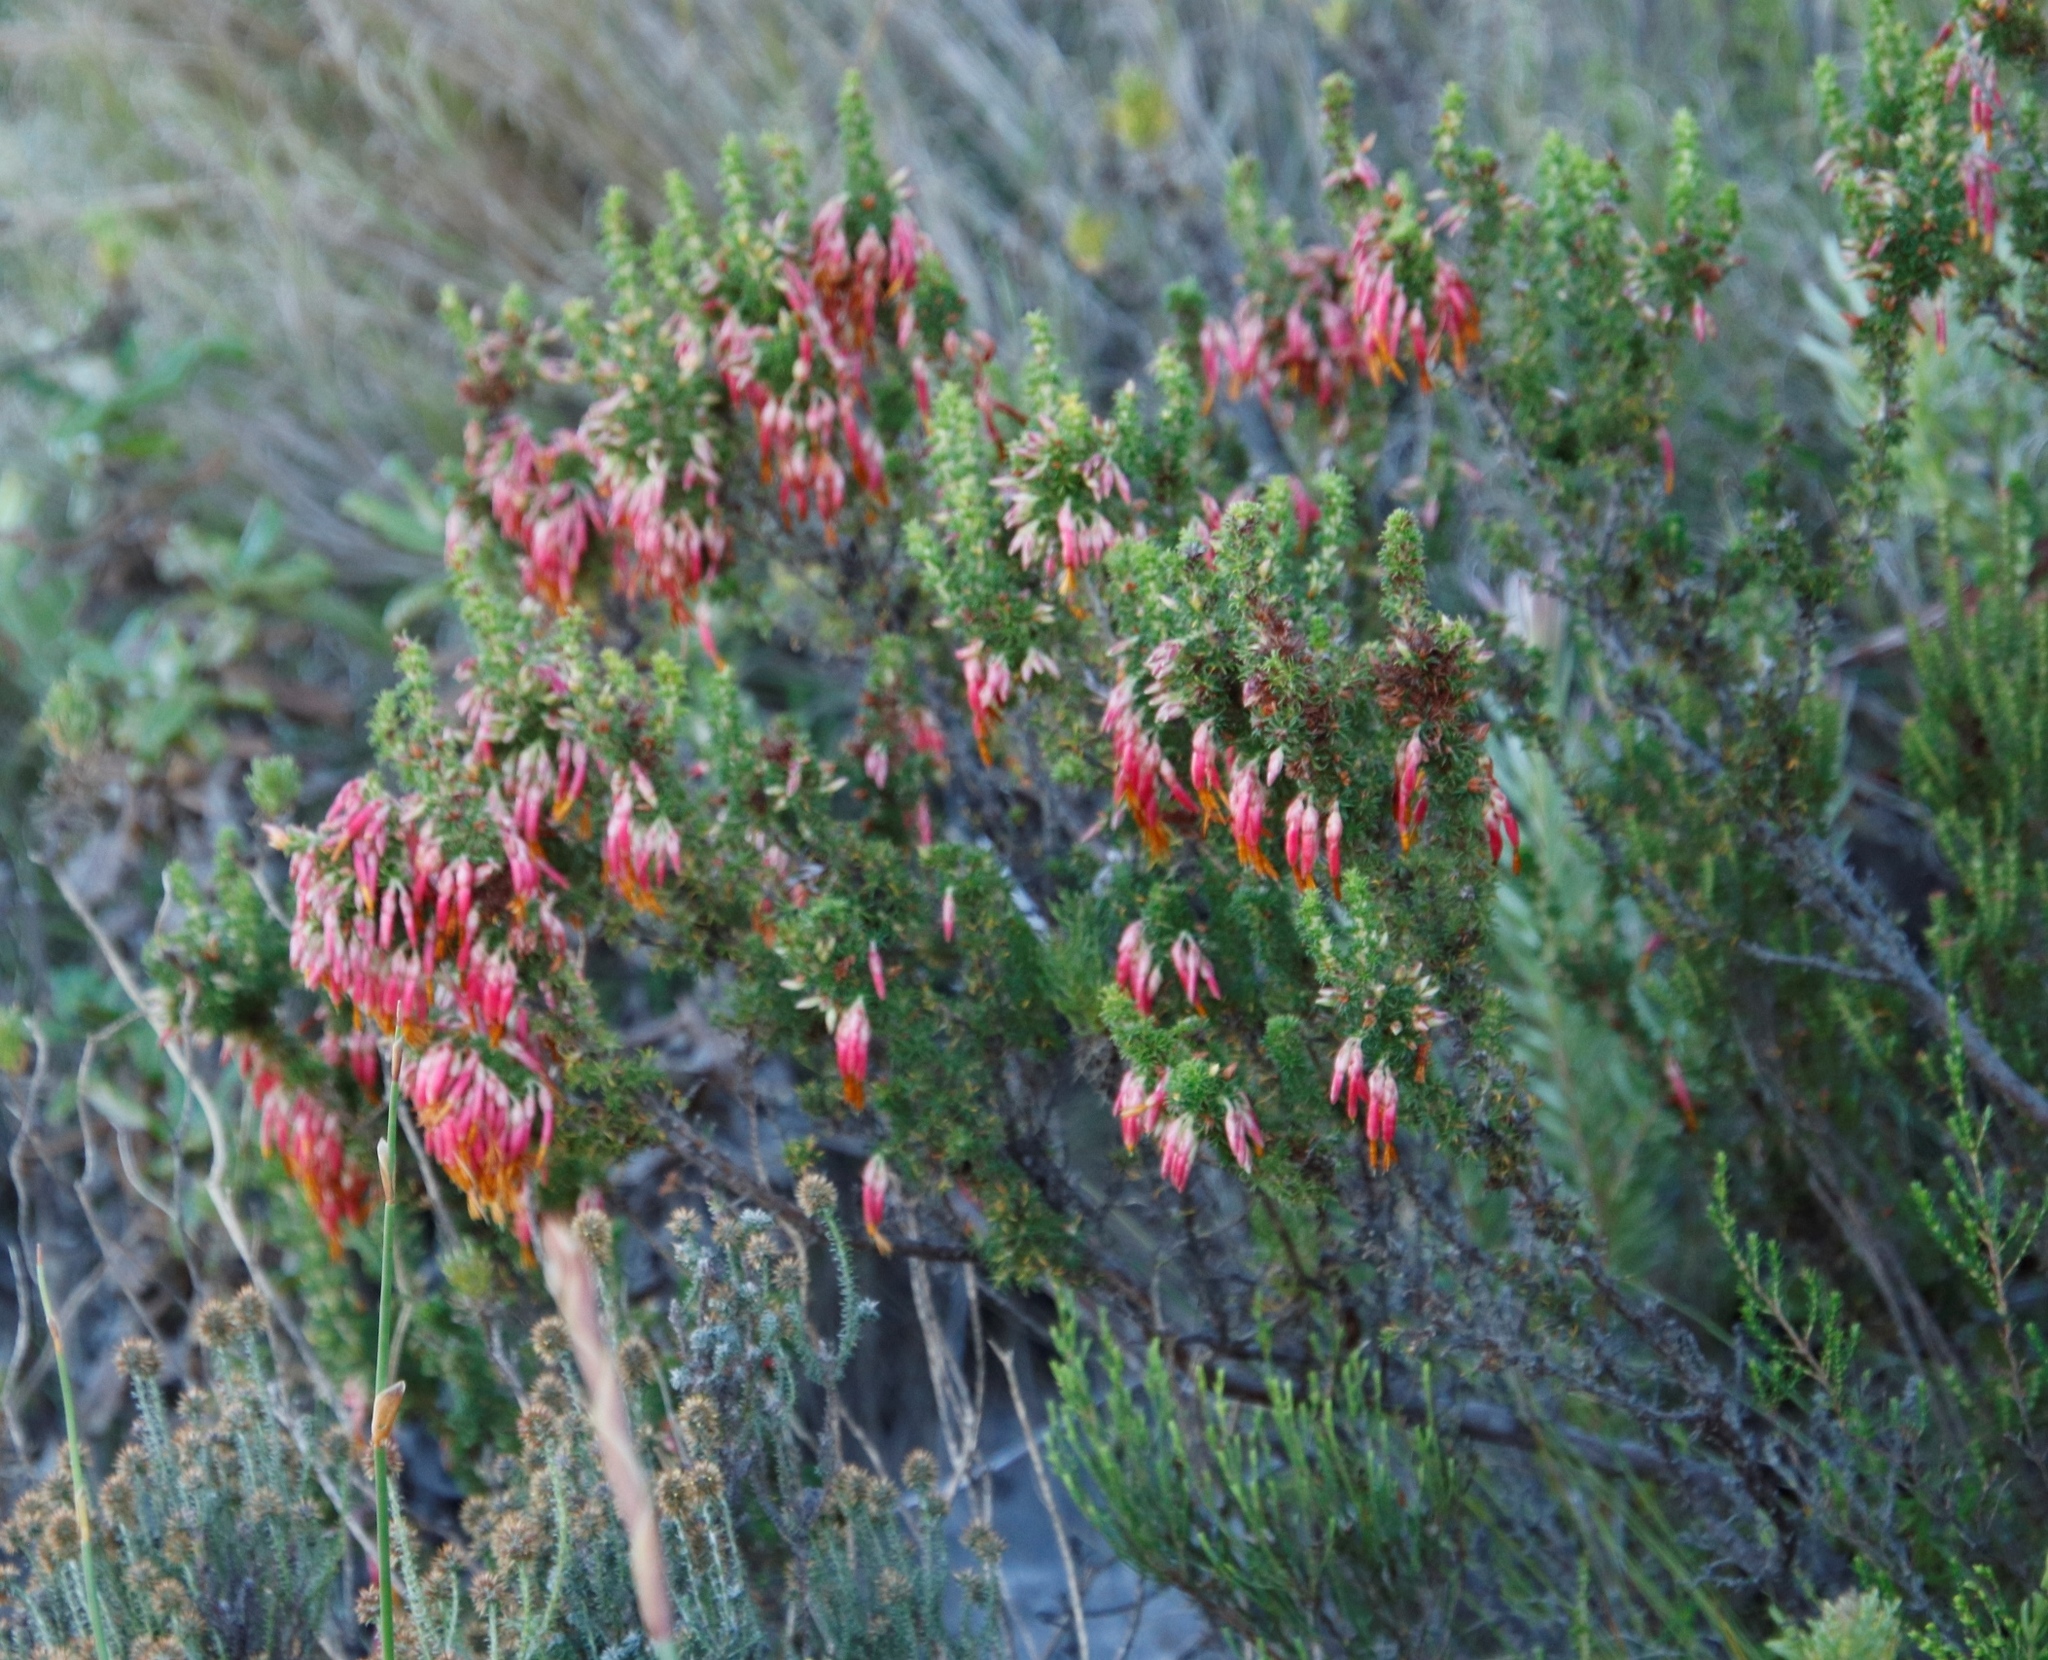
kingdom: Plantae
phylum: Tracheophyta
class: Magnoliopsida
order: Ericales
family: Ericaceae
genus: Erica
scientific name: Erica coccinea
